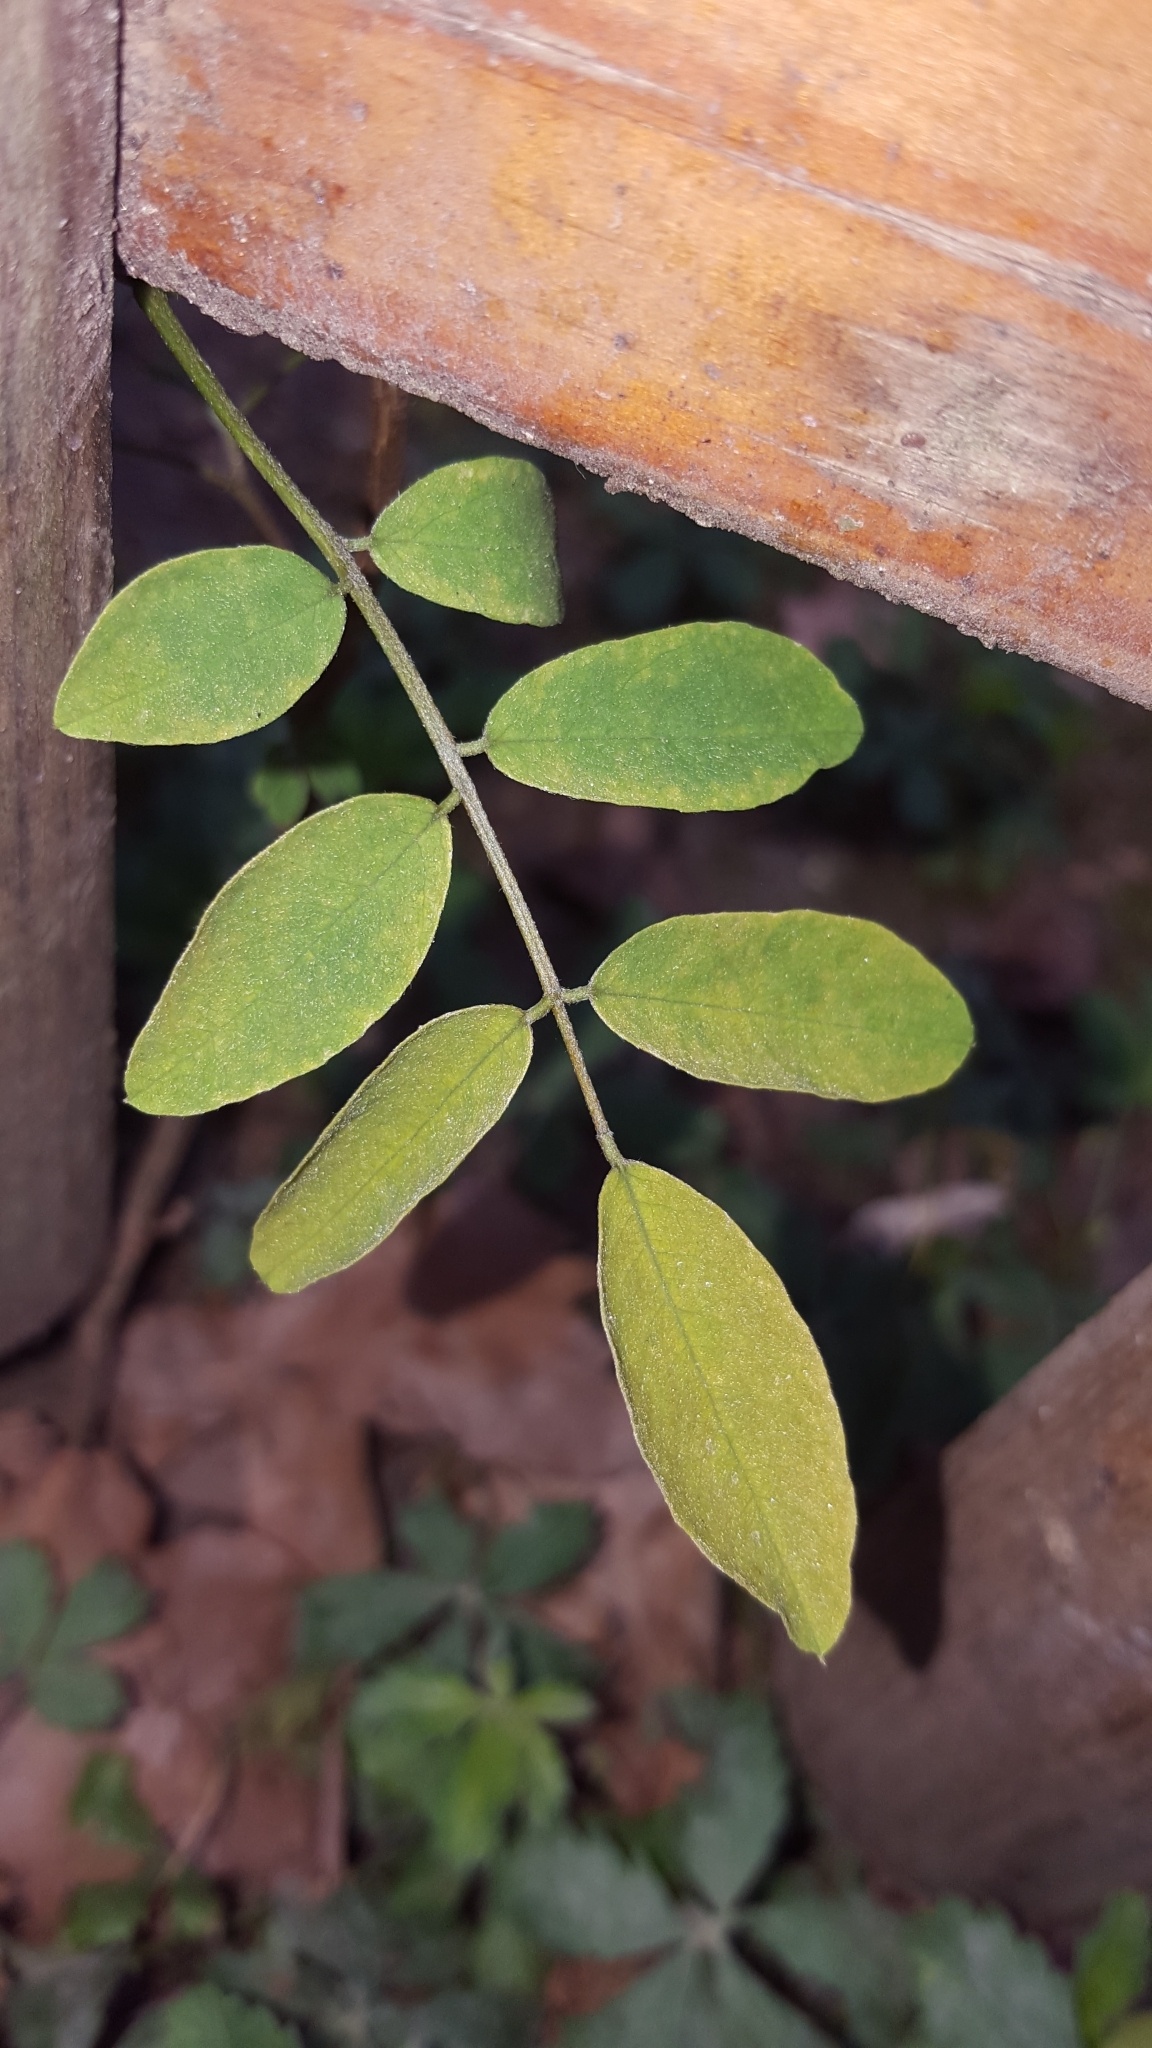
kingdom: Plantae
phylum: Tracheophyta
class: Magnoliopsida
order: Fabales
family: Fabaceae
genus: Robinia
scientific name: Robinia pseudoacacia
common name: Black locust
